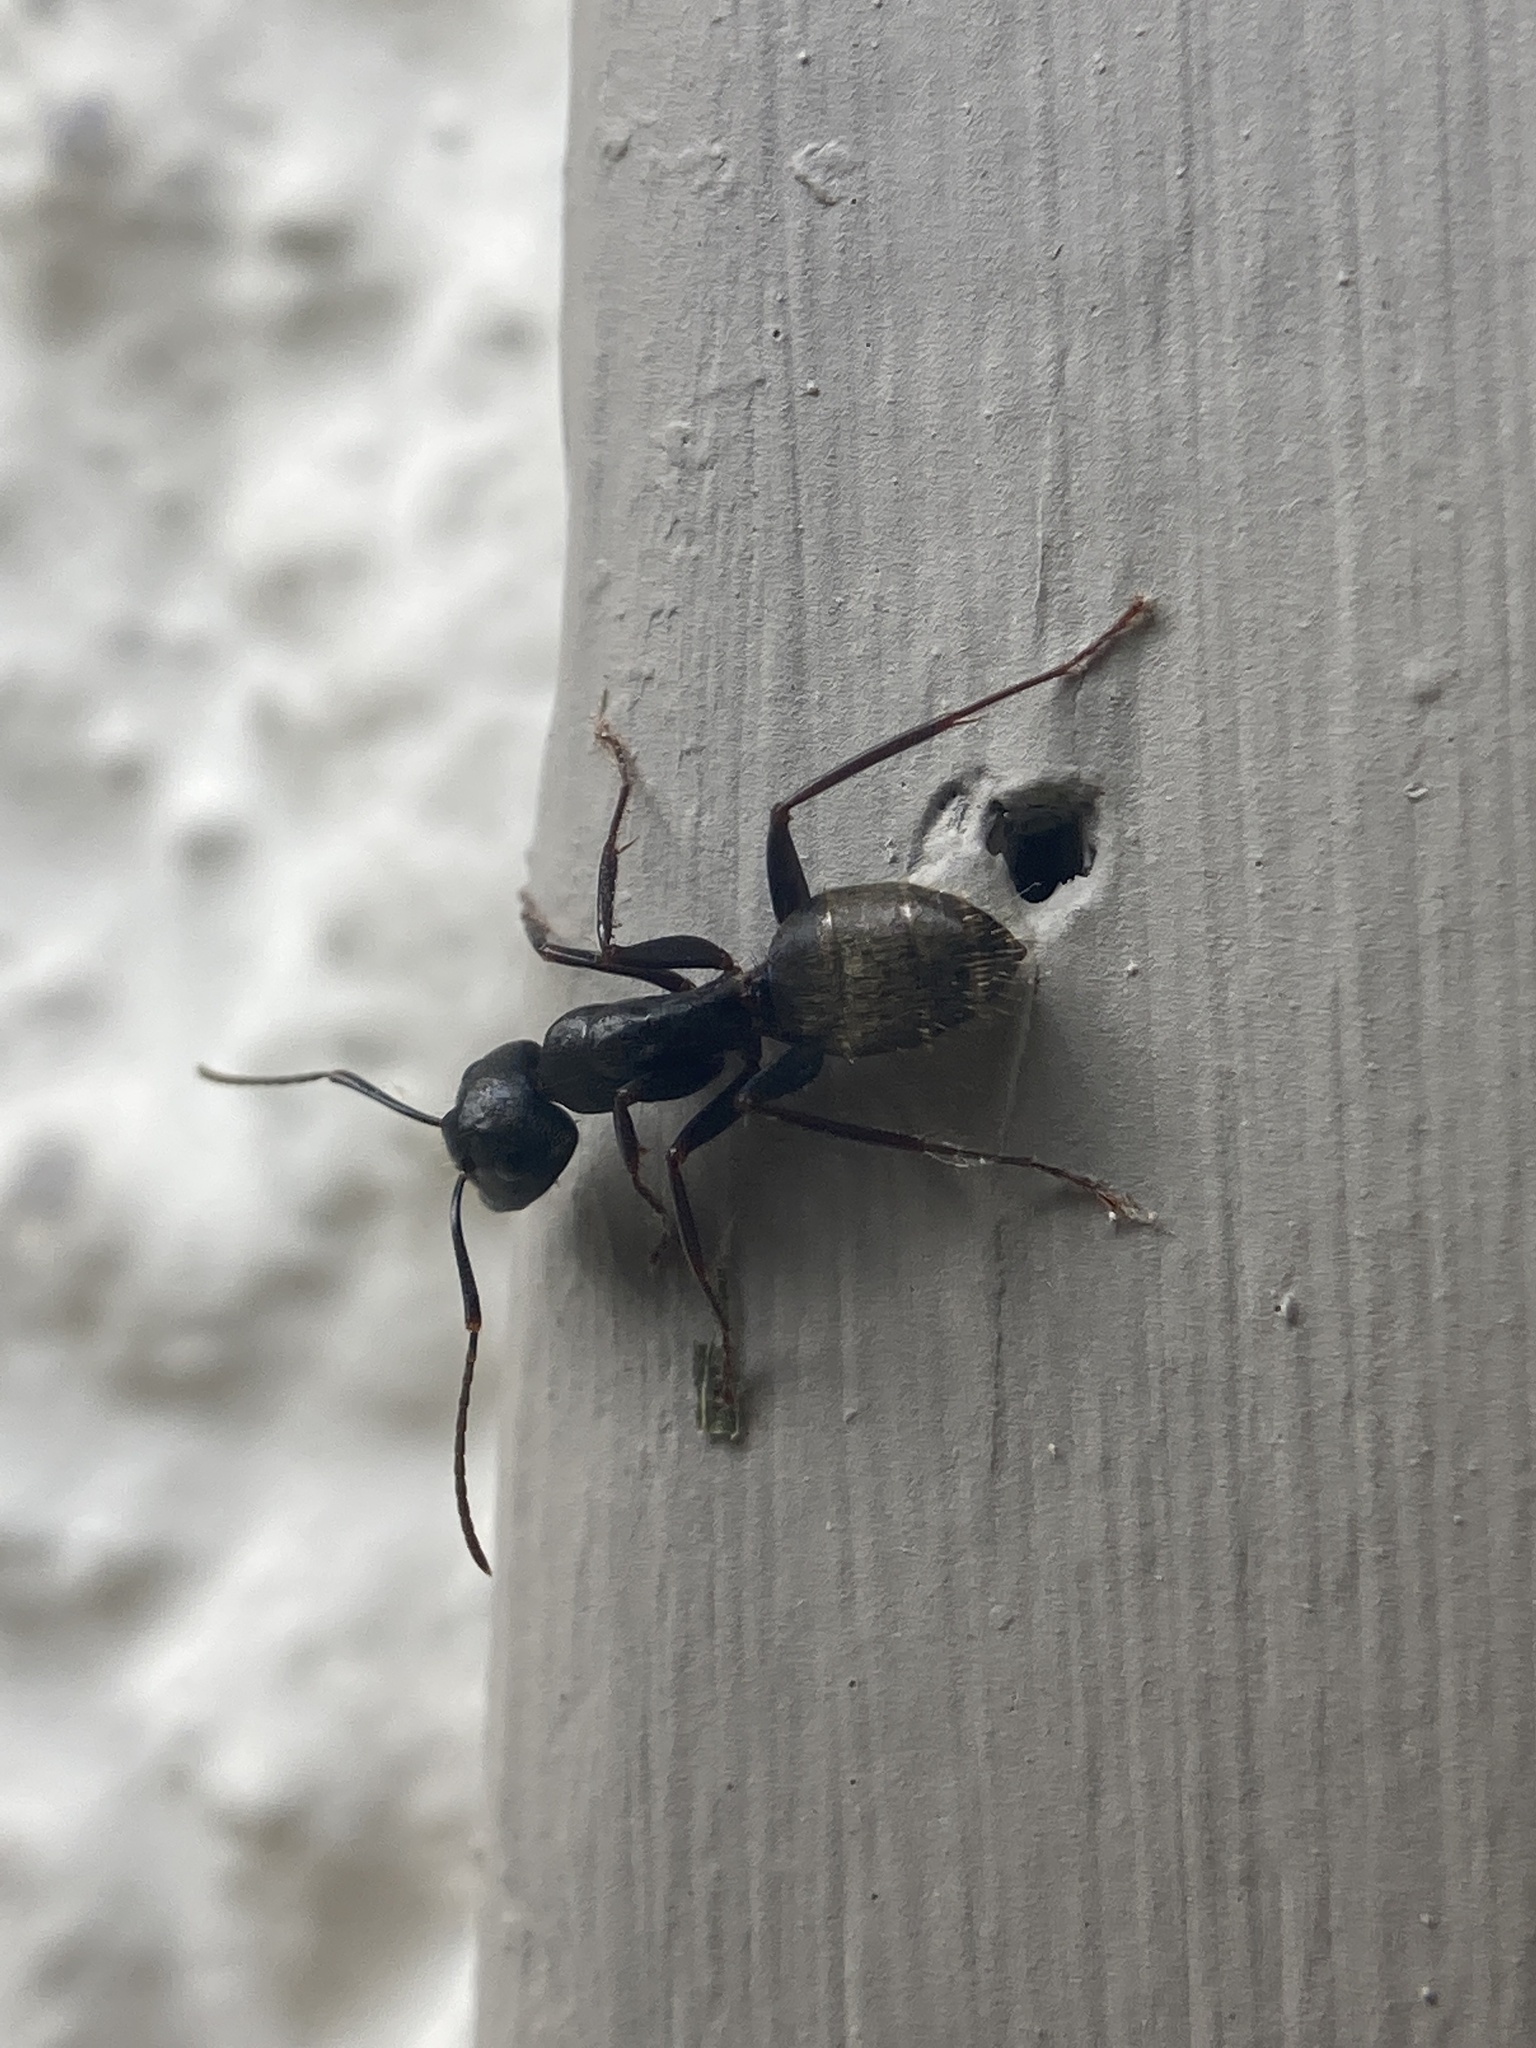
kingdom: Animalia
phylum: Arthropoda
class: Insecta
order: Hymenoptera
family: Formicidae
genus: Camponotus
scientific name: Camponotus pennsylvanicus
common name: Black carpenter ant
